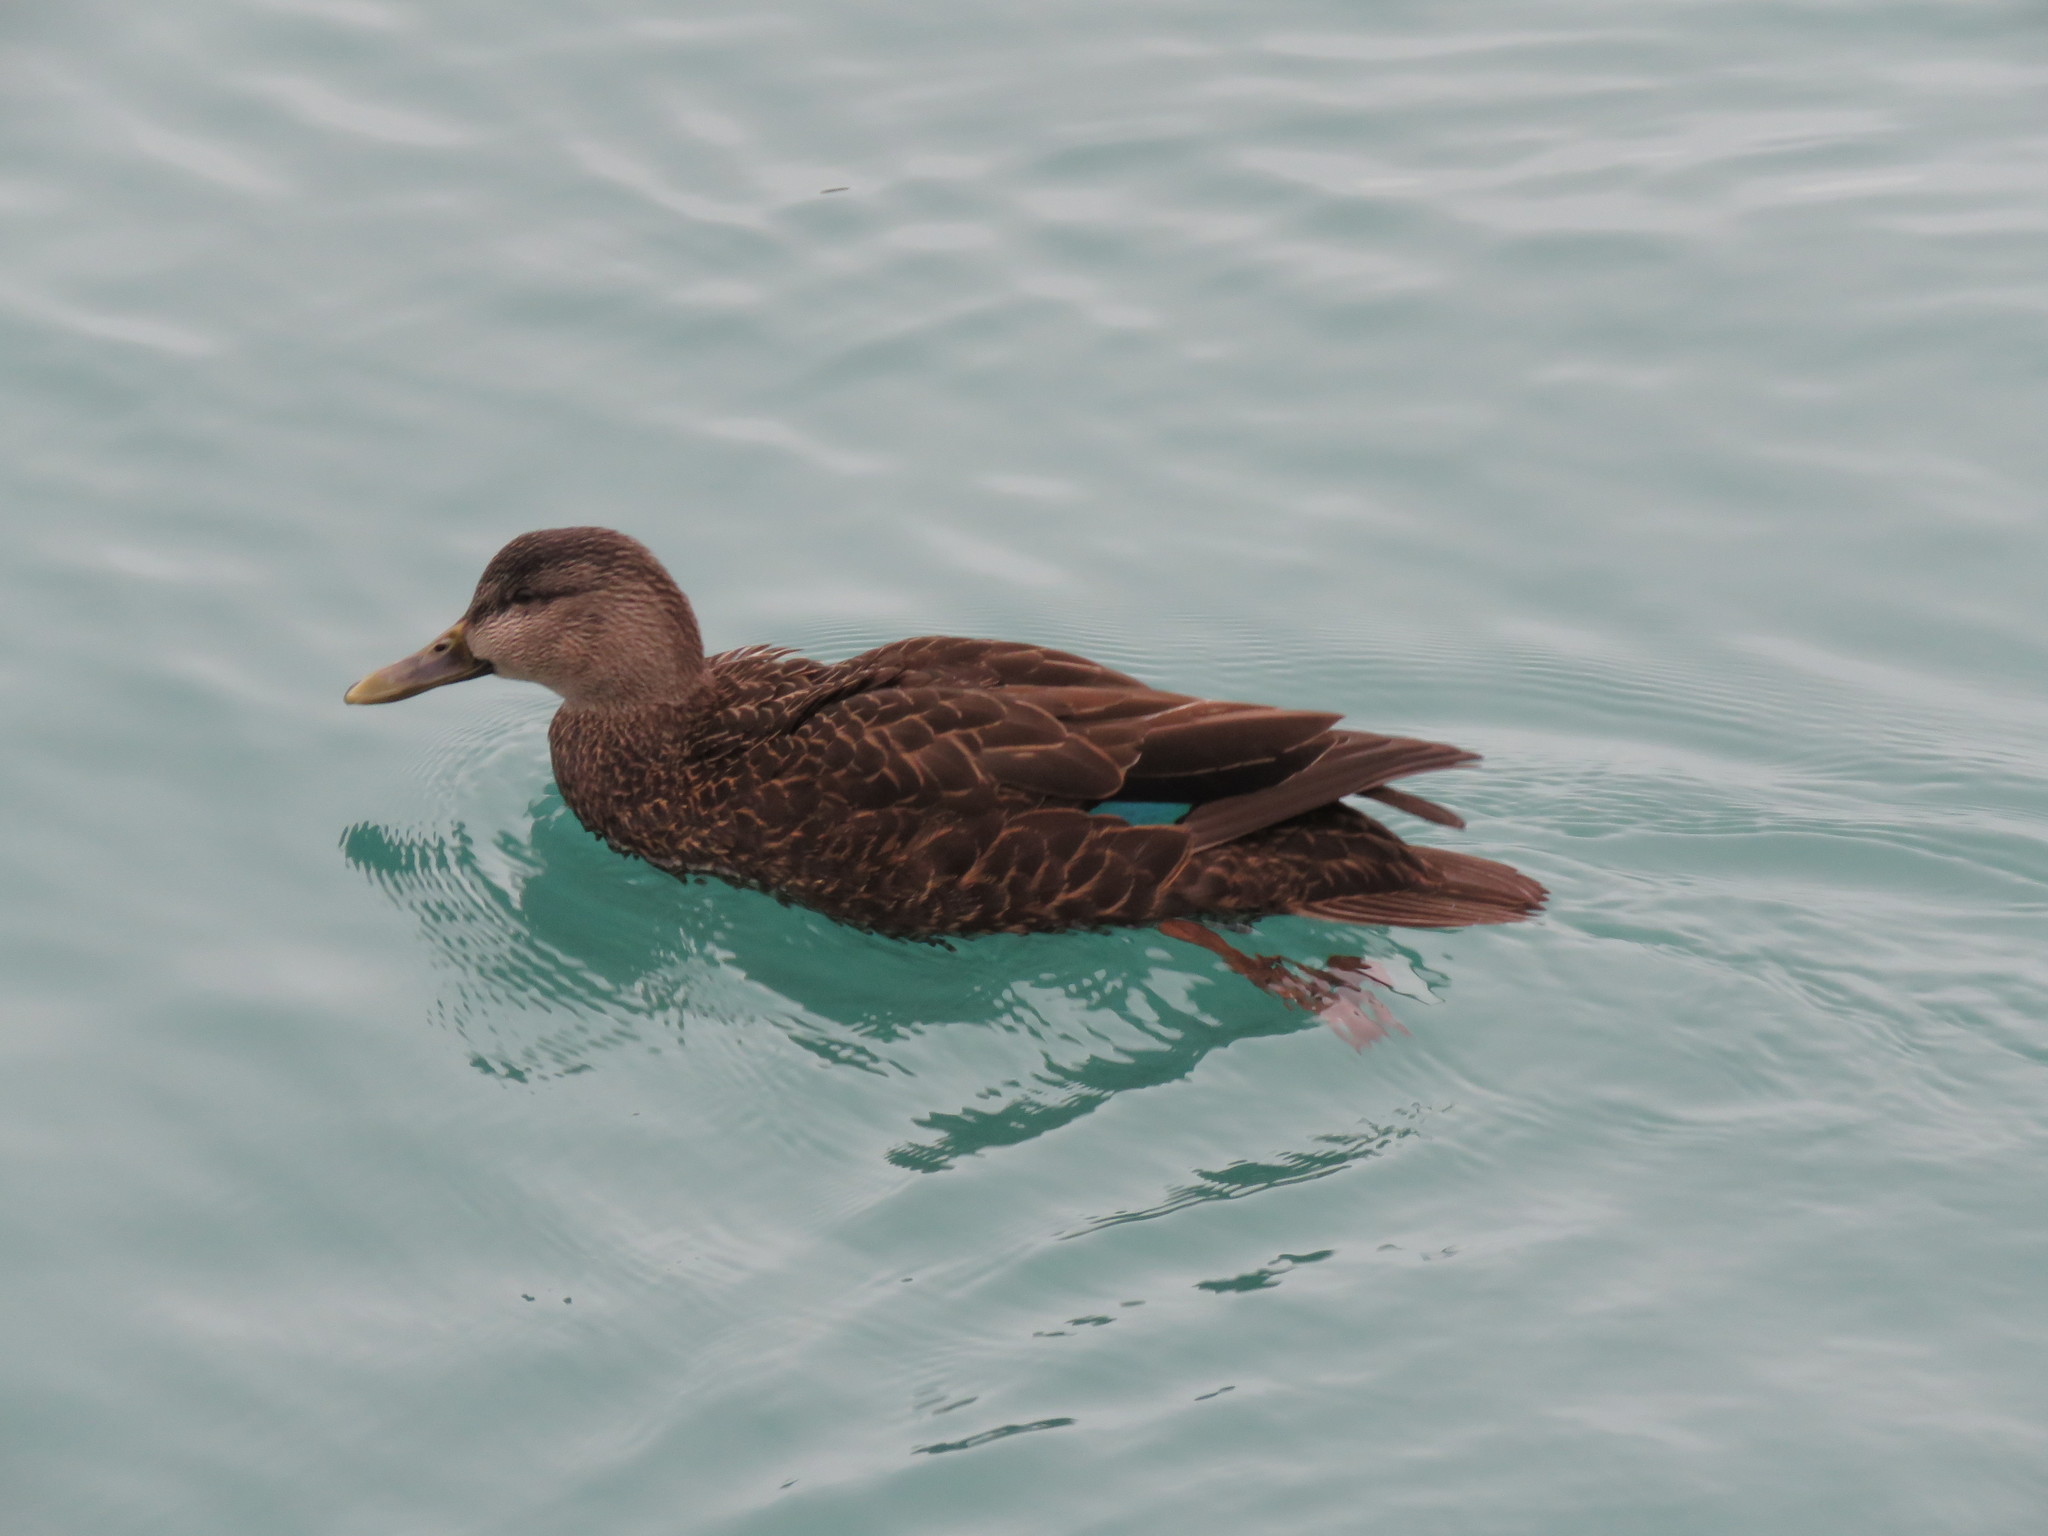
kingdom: Animalia
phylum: Chordata
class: Aves
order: Anseriformes
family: Anatidae
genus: Anas
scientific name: Anas rubripes
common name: American black duck
